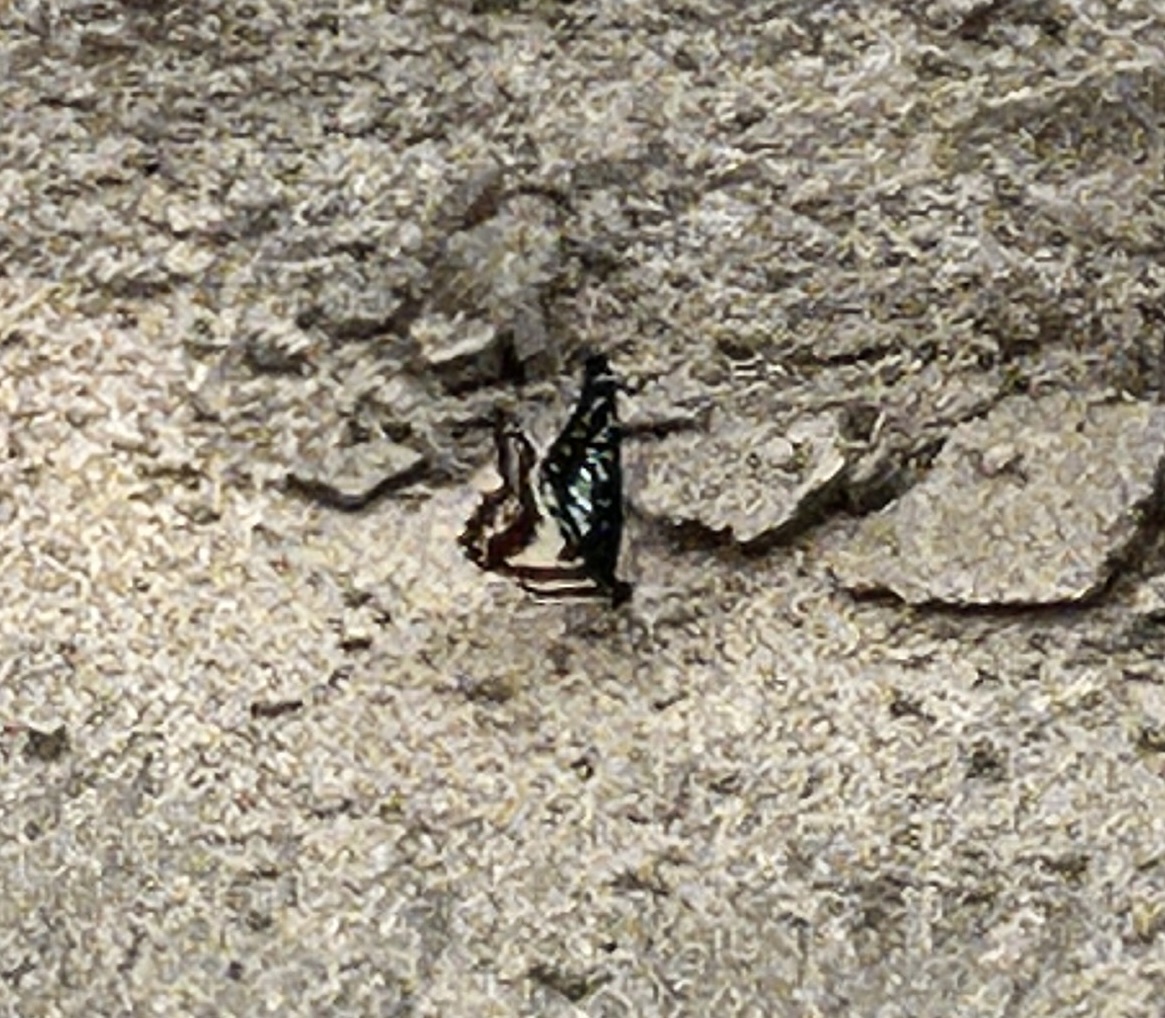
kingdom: Animalia
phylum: Arthropoda
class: Insecta
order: Lepidoptera
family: Papilionidae
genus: Graphium
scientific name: Graphium doson
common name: Common jay
